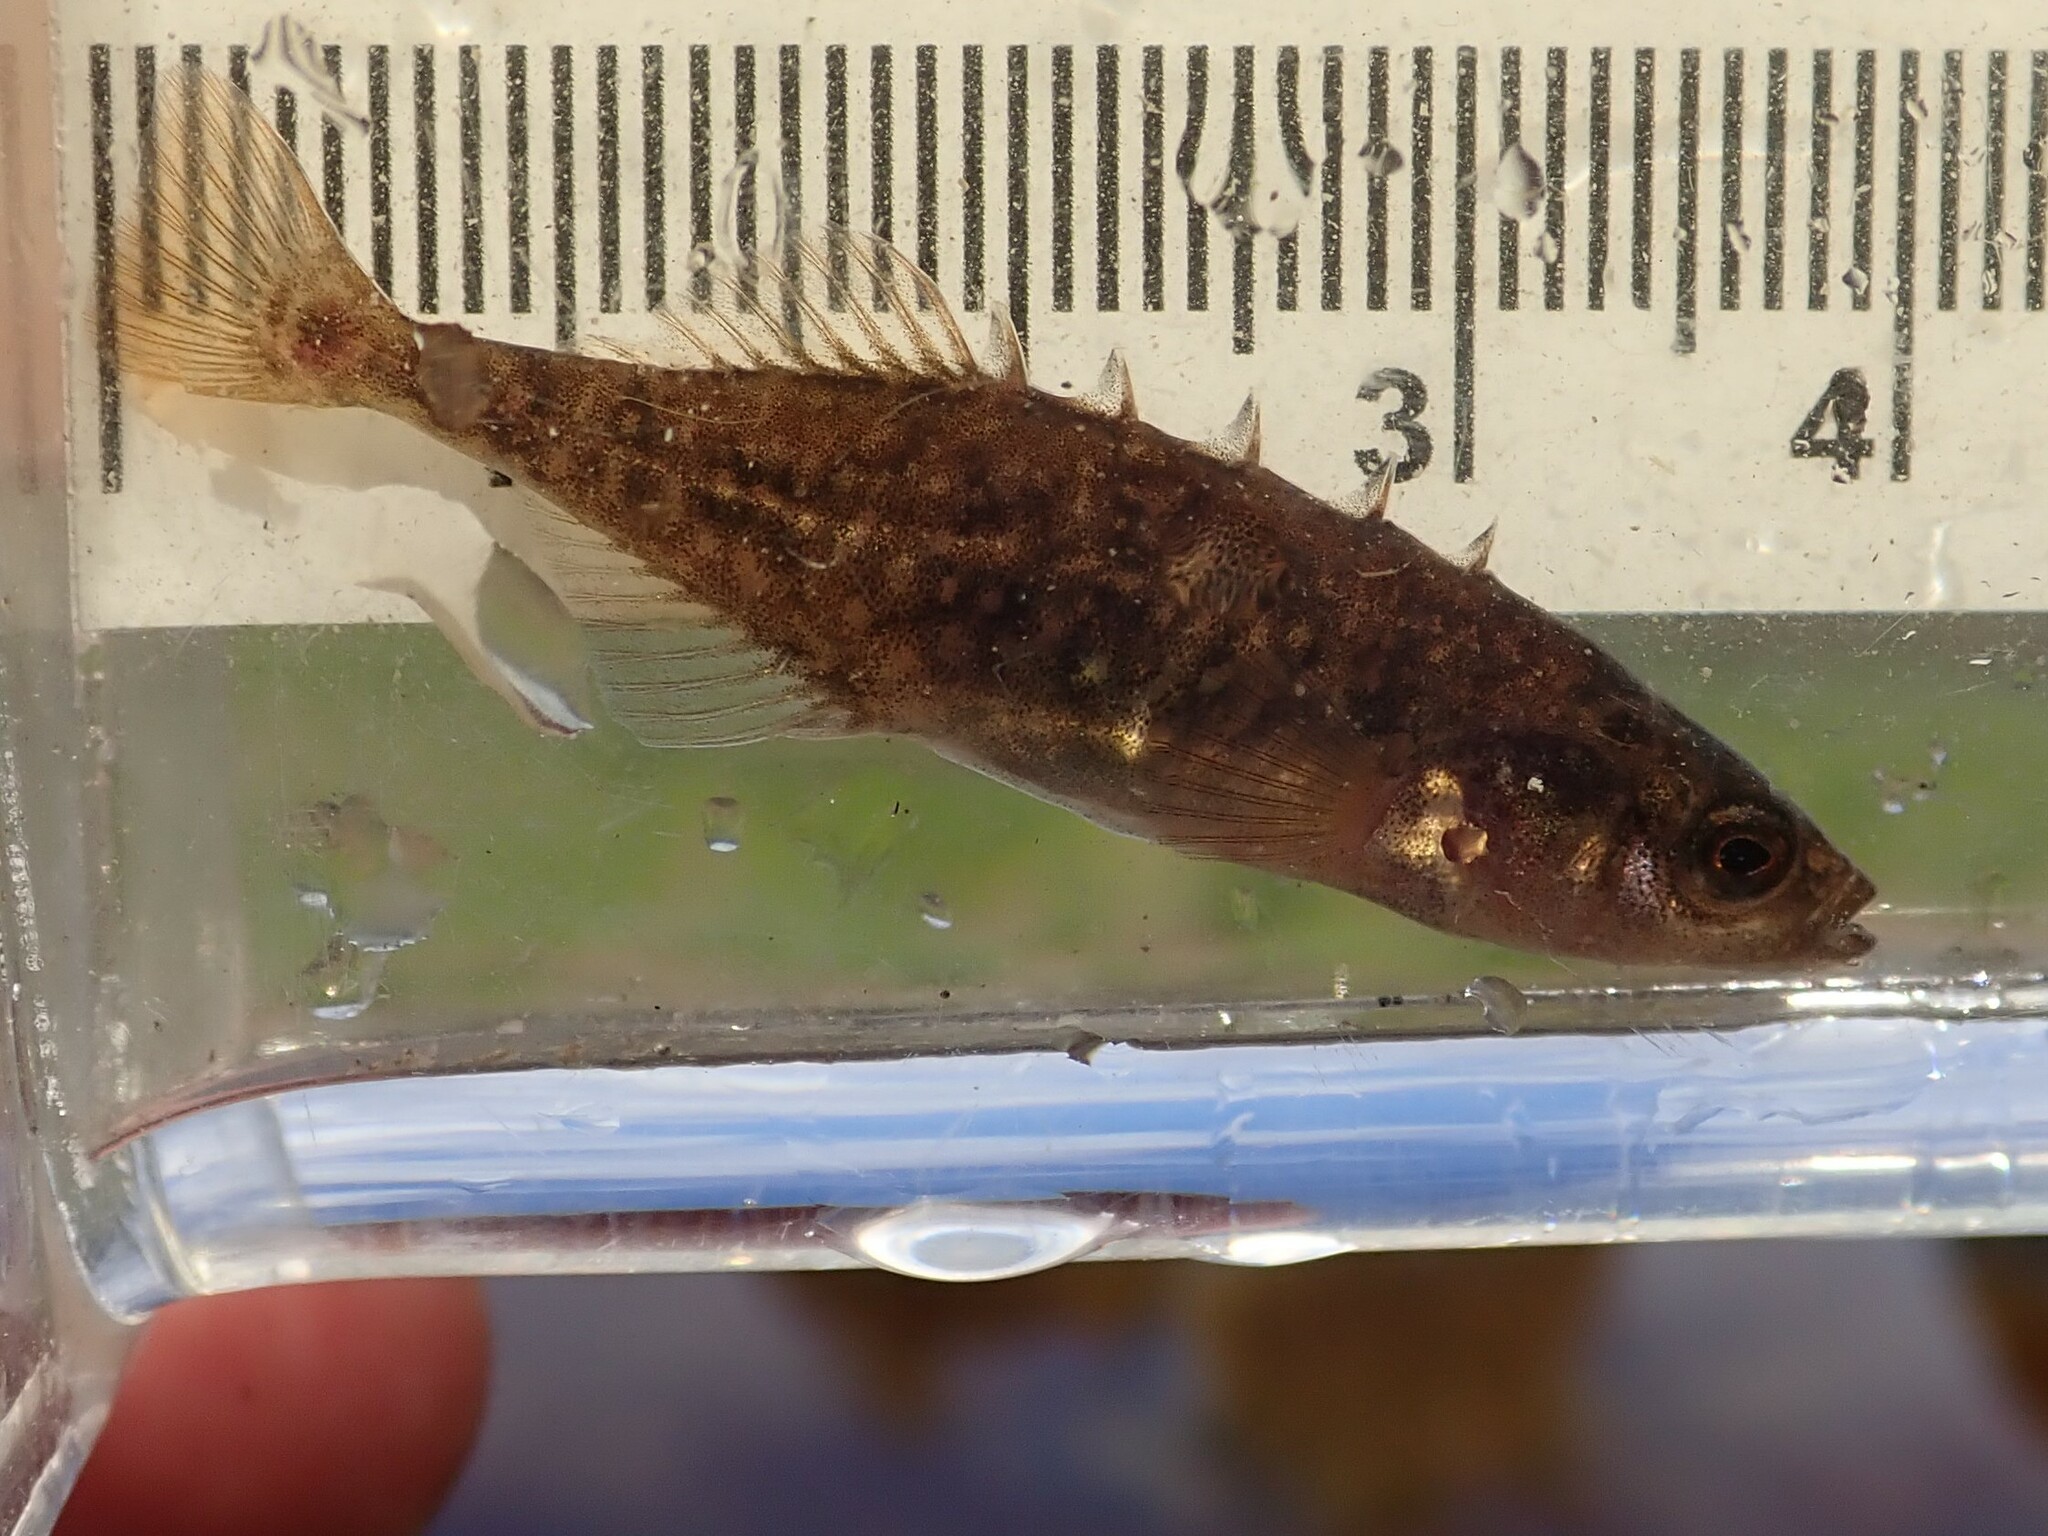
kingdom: Animalia
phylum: Chordata
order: Gasterosteiformes
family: Gasterosteidae
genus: Culaea
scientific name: Culaea inconstans
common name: Brook stickleback
